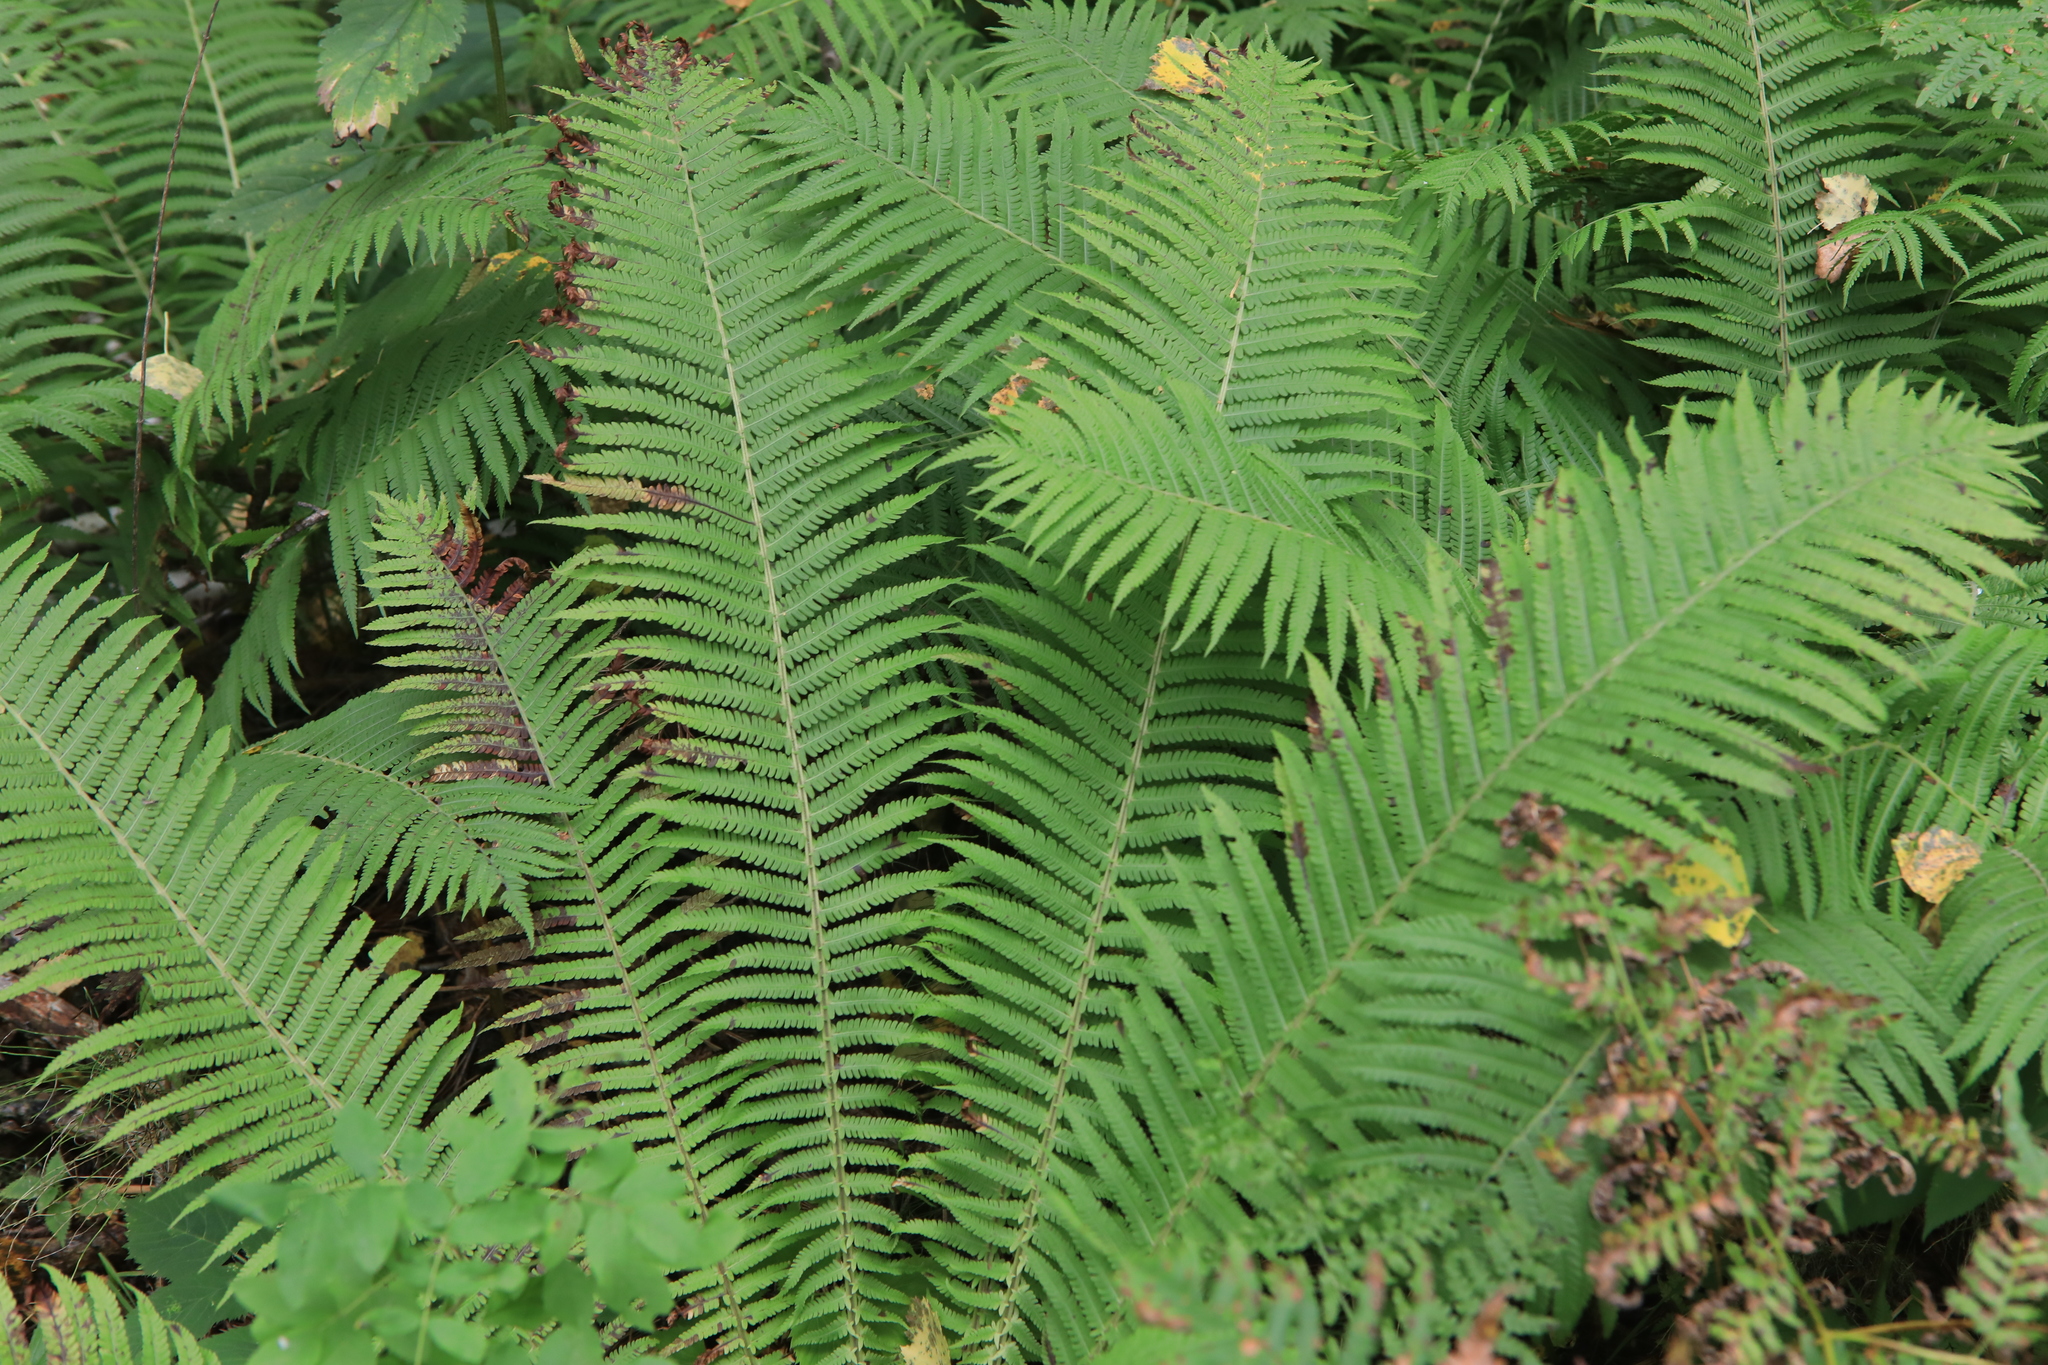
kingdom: Plantae
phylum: Tracheophyta
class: Polypodiopsida
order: Polypodiales
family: Onocleaceae
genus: Matteuccia
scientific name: Matteuccia struthiopteris
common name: Ostrich fern
